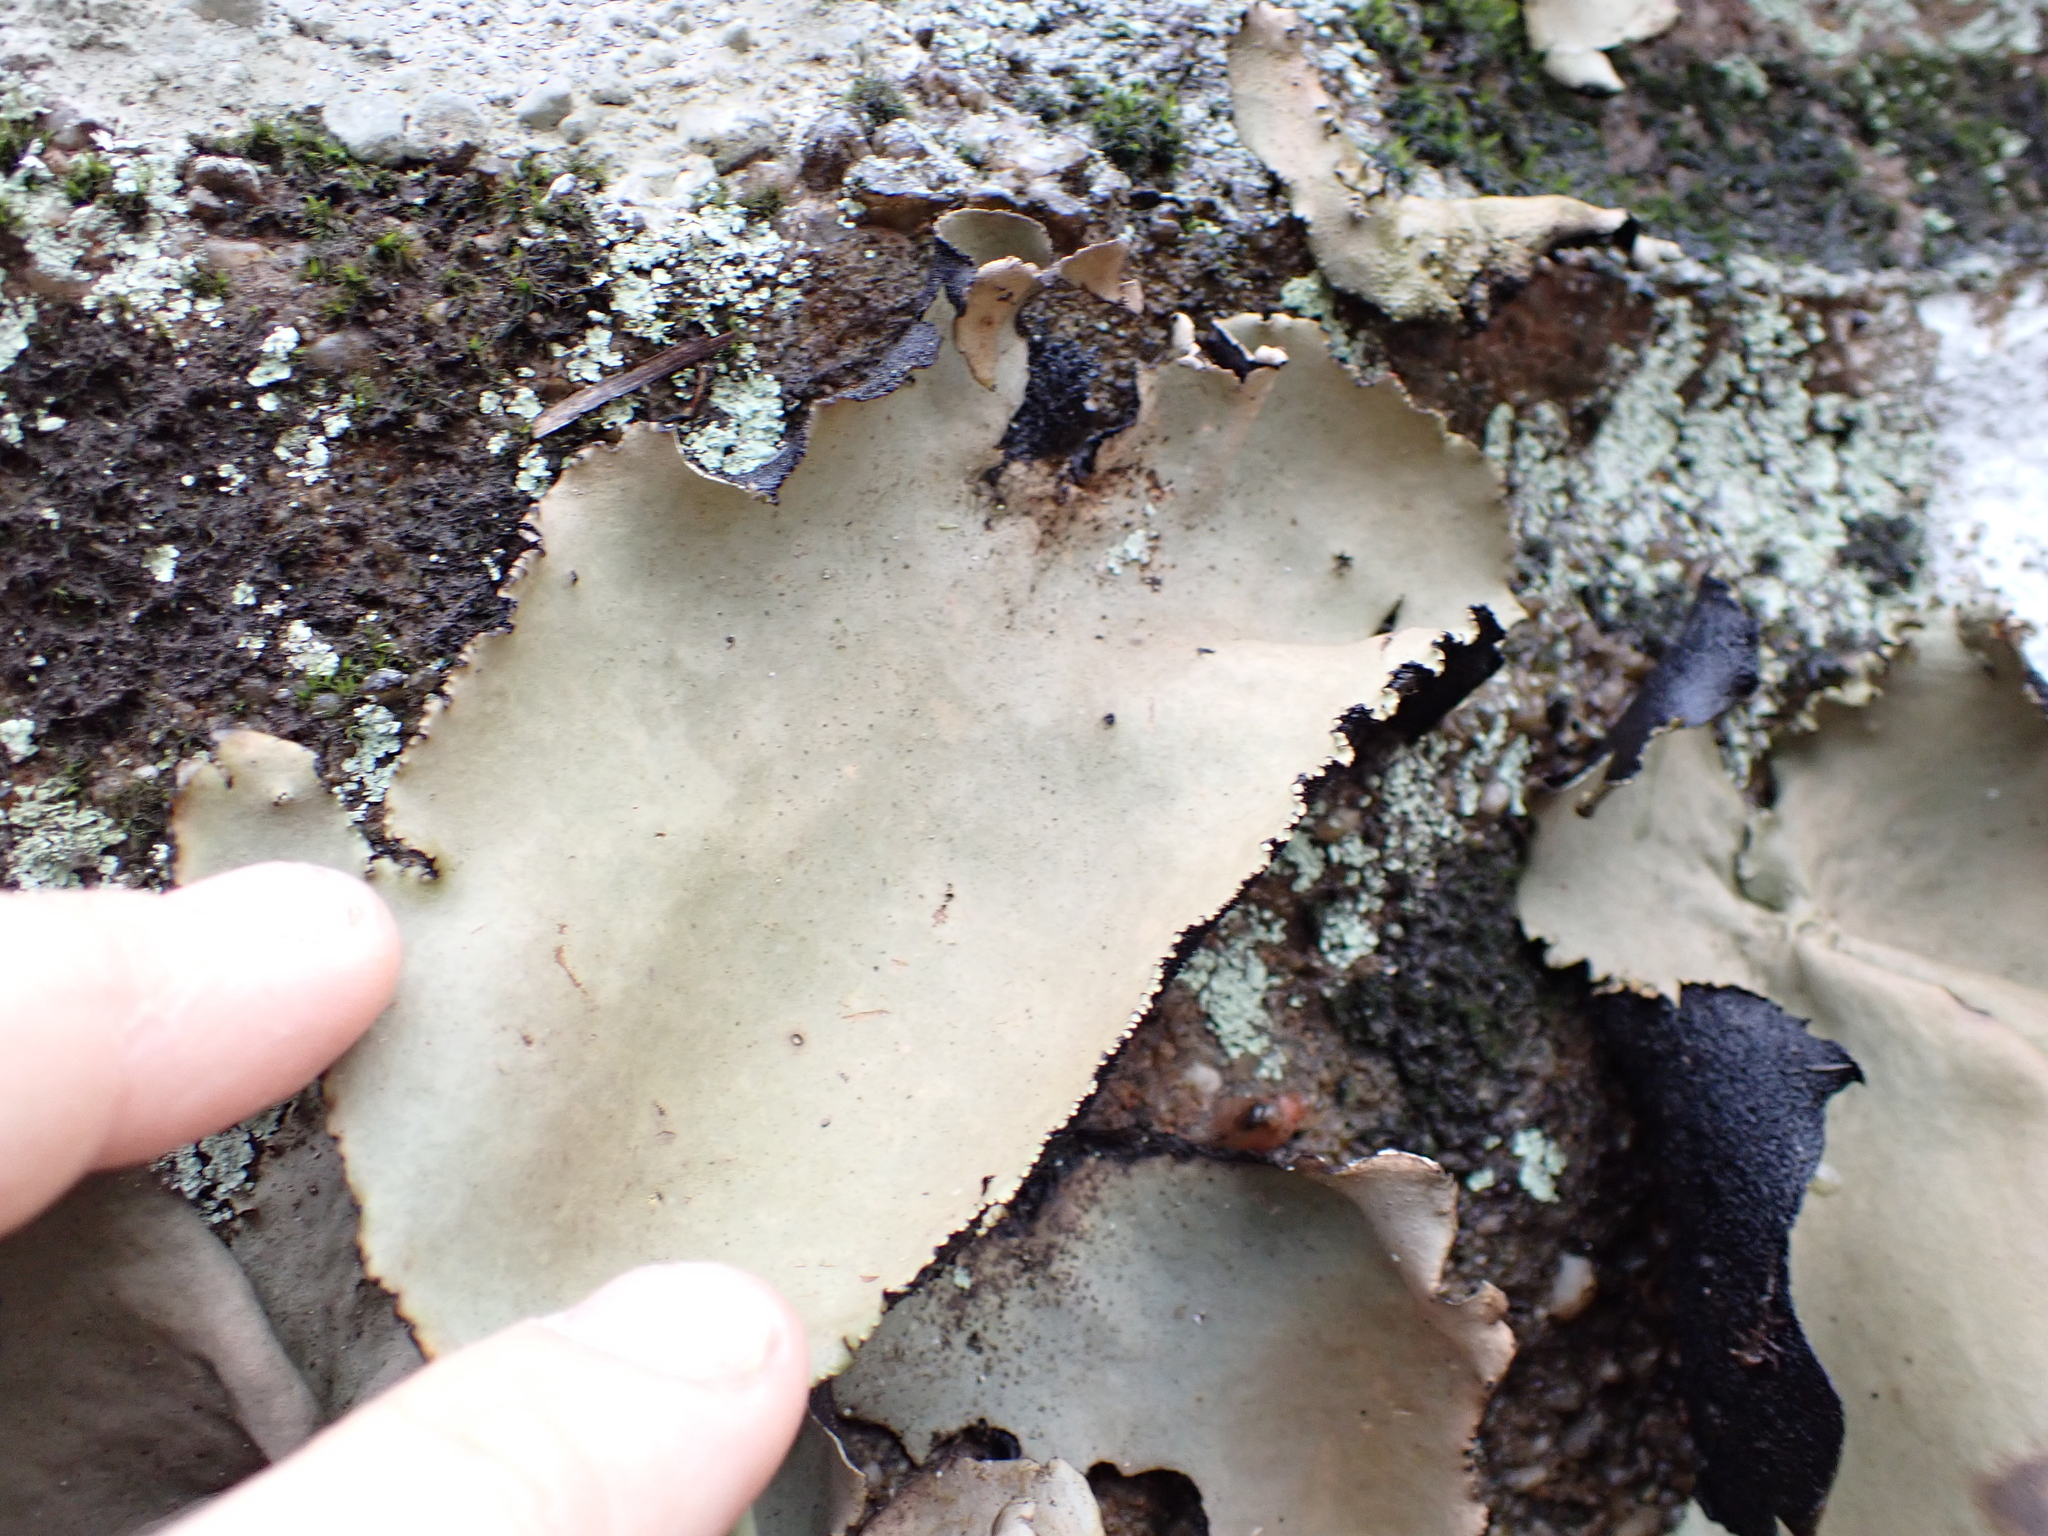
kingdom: Fungi
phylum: Ascomycota
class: Lecanoromycetes
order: Umbilicariales
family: Umbilicariaceae
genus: Umbilicaria
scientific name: Umbilicaria mammulata
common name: Smooth rock tripe
